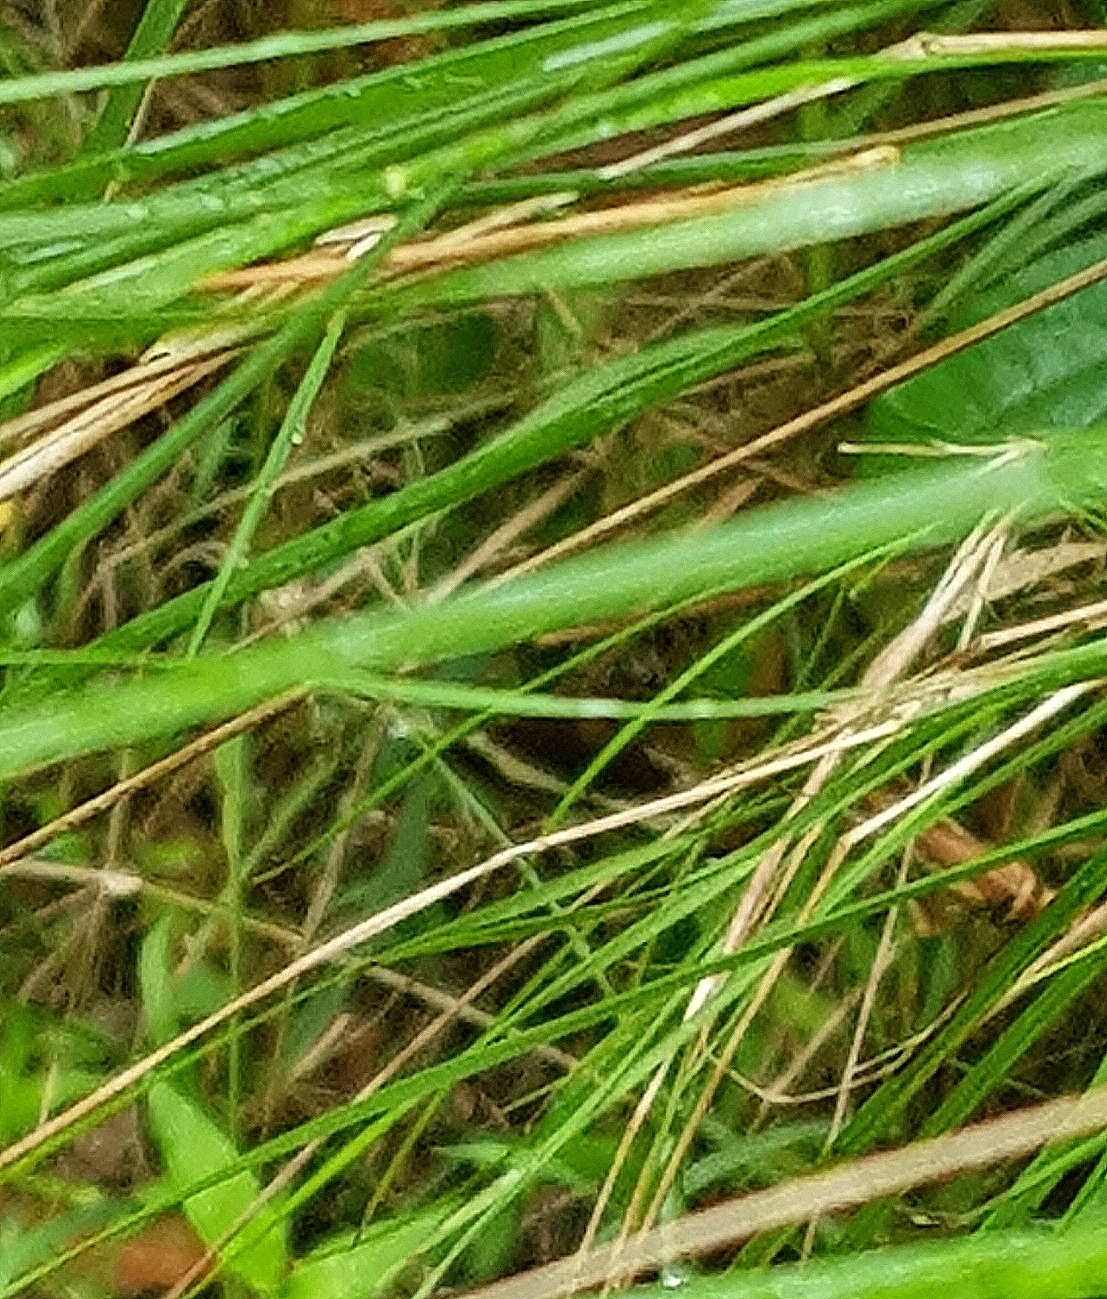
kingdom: Animalia
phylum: Arthropoda
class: Insecta
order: Lepidoptera
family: Geometridae
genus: Epidesmia
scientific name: Epidesmia tricolor
